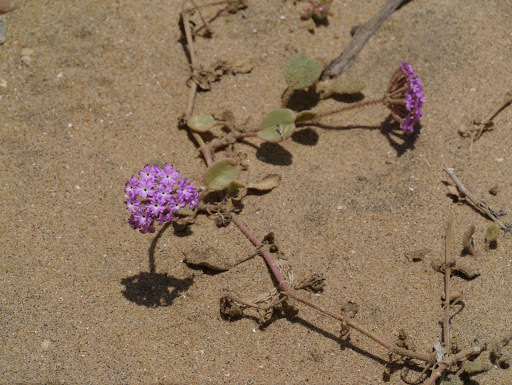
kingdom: Plantae
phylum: Tracheophyta
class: Magnoliopsida
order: Caryophyllales
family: Nyctaginaceae
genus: Abronia
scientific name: Abronia umbellata
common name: Sand-verbena
